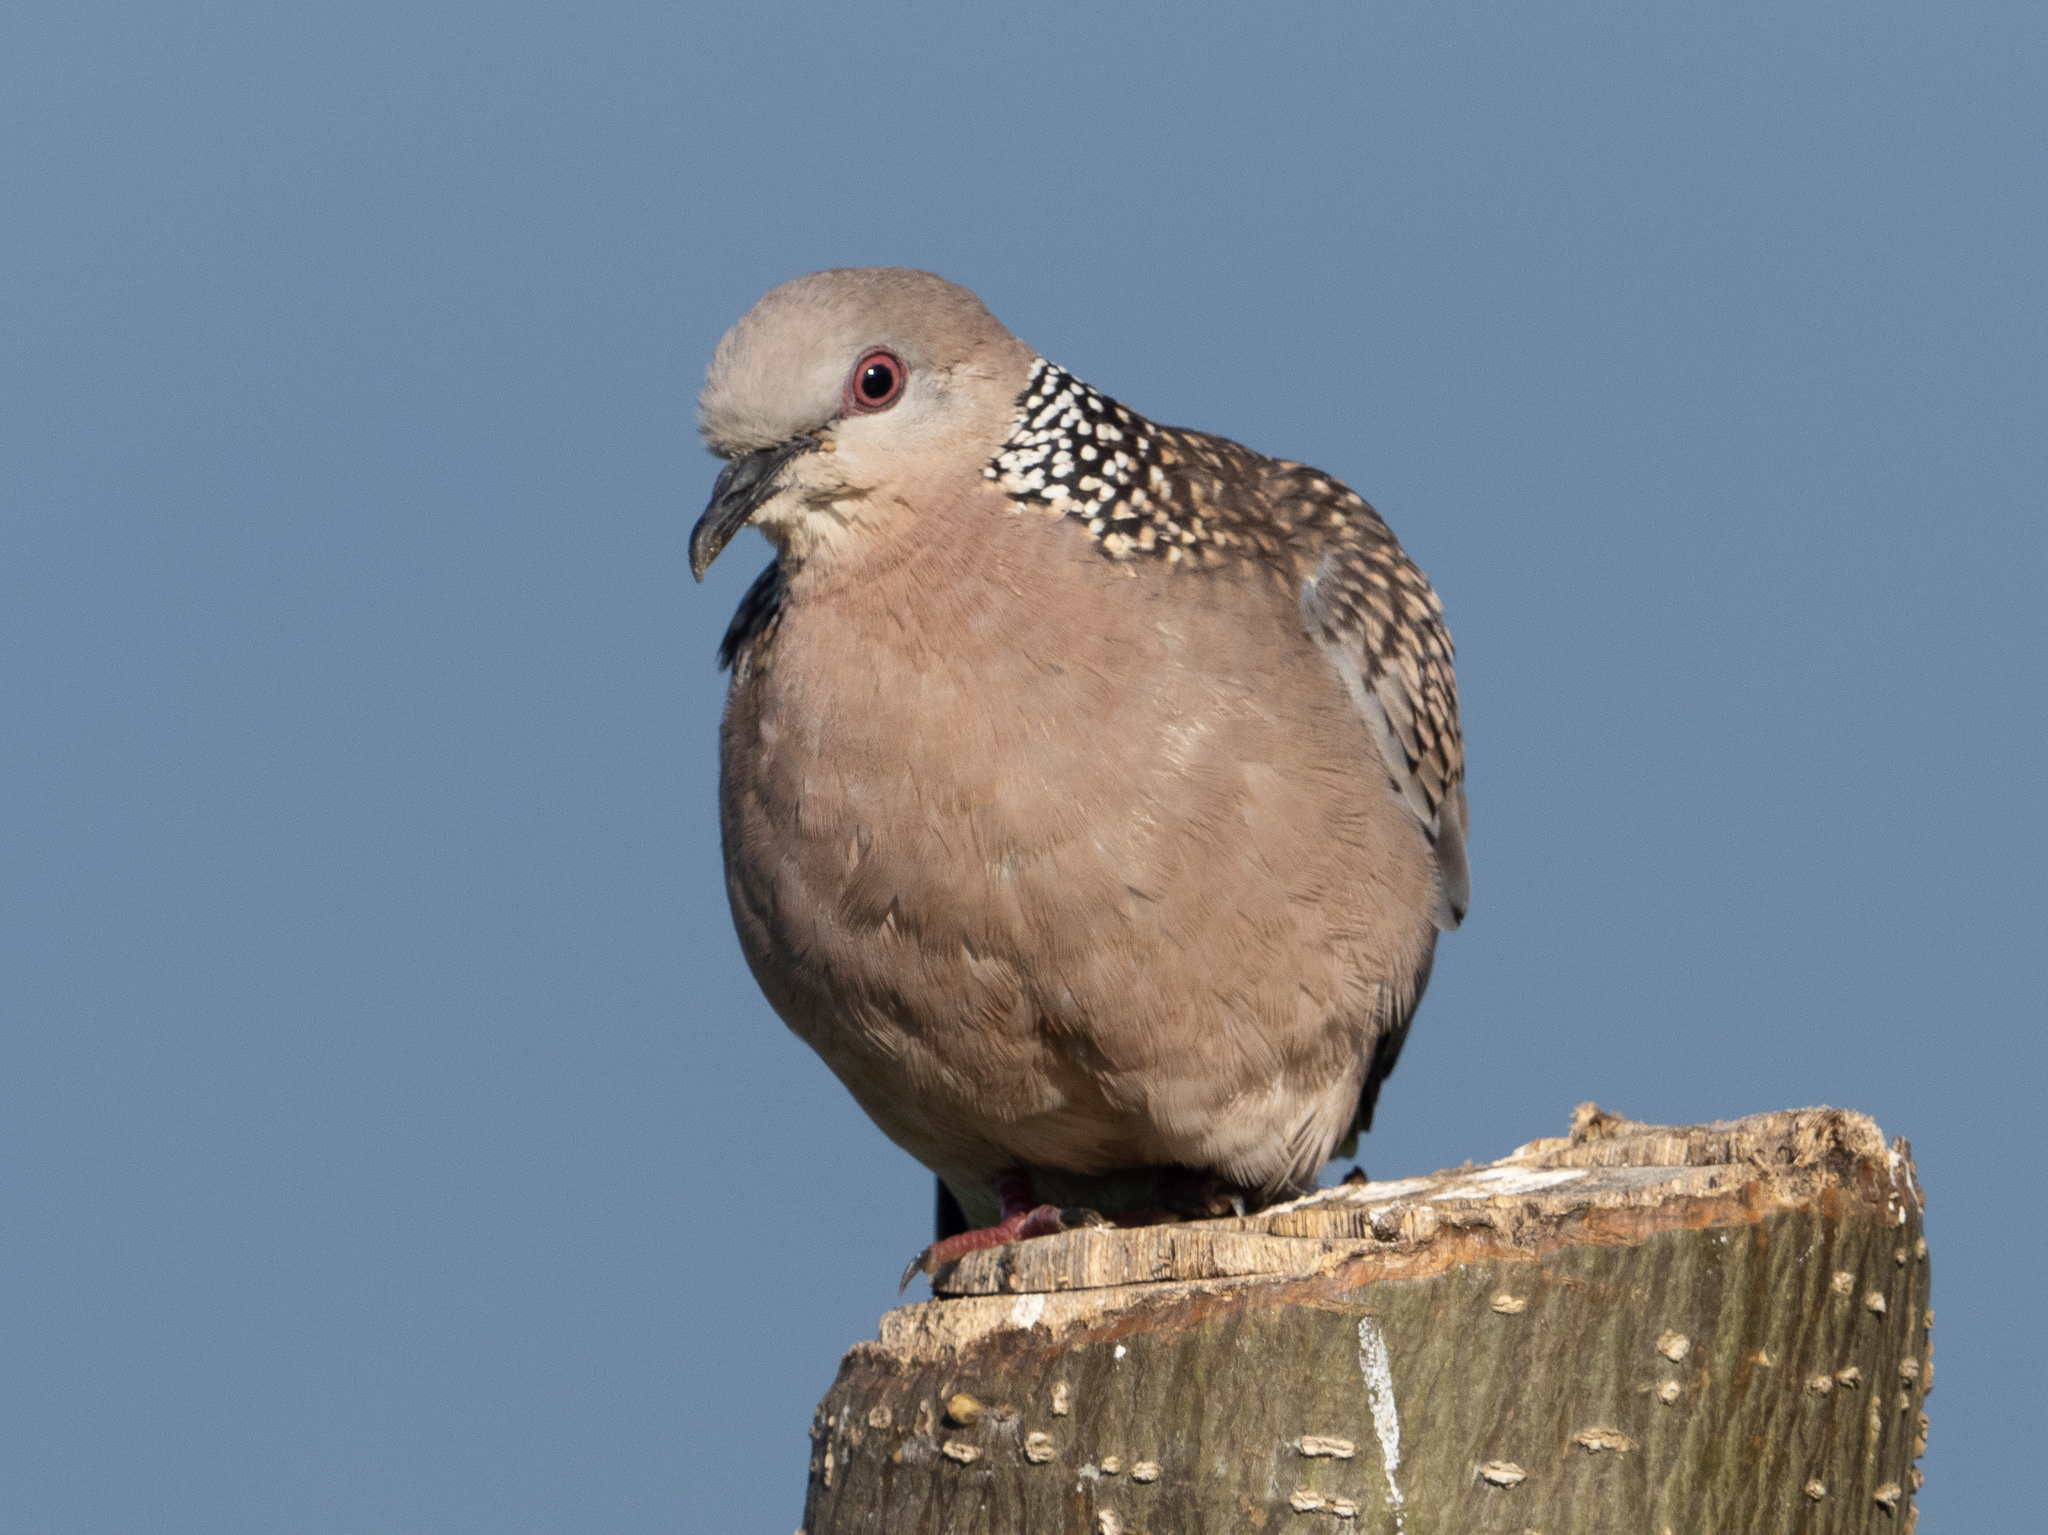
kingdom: Animalia
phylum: Chordata
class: Aves
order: Columbiformes
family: Columbidae
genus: Spilopelia
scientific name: Spilopelia chinensis
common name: Spotted dove
